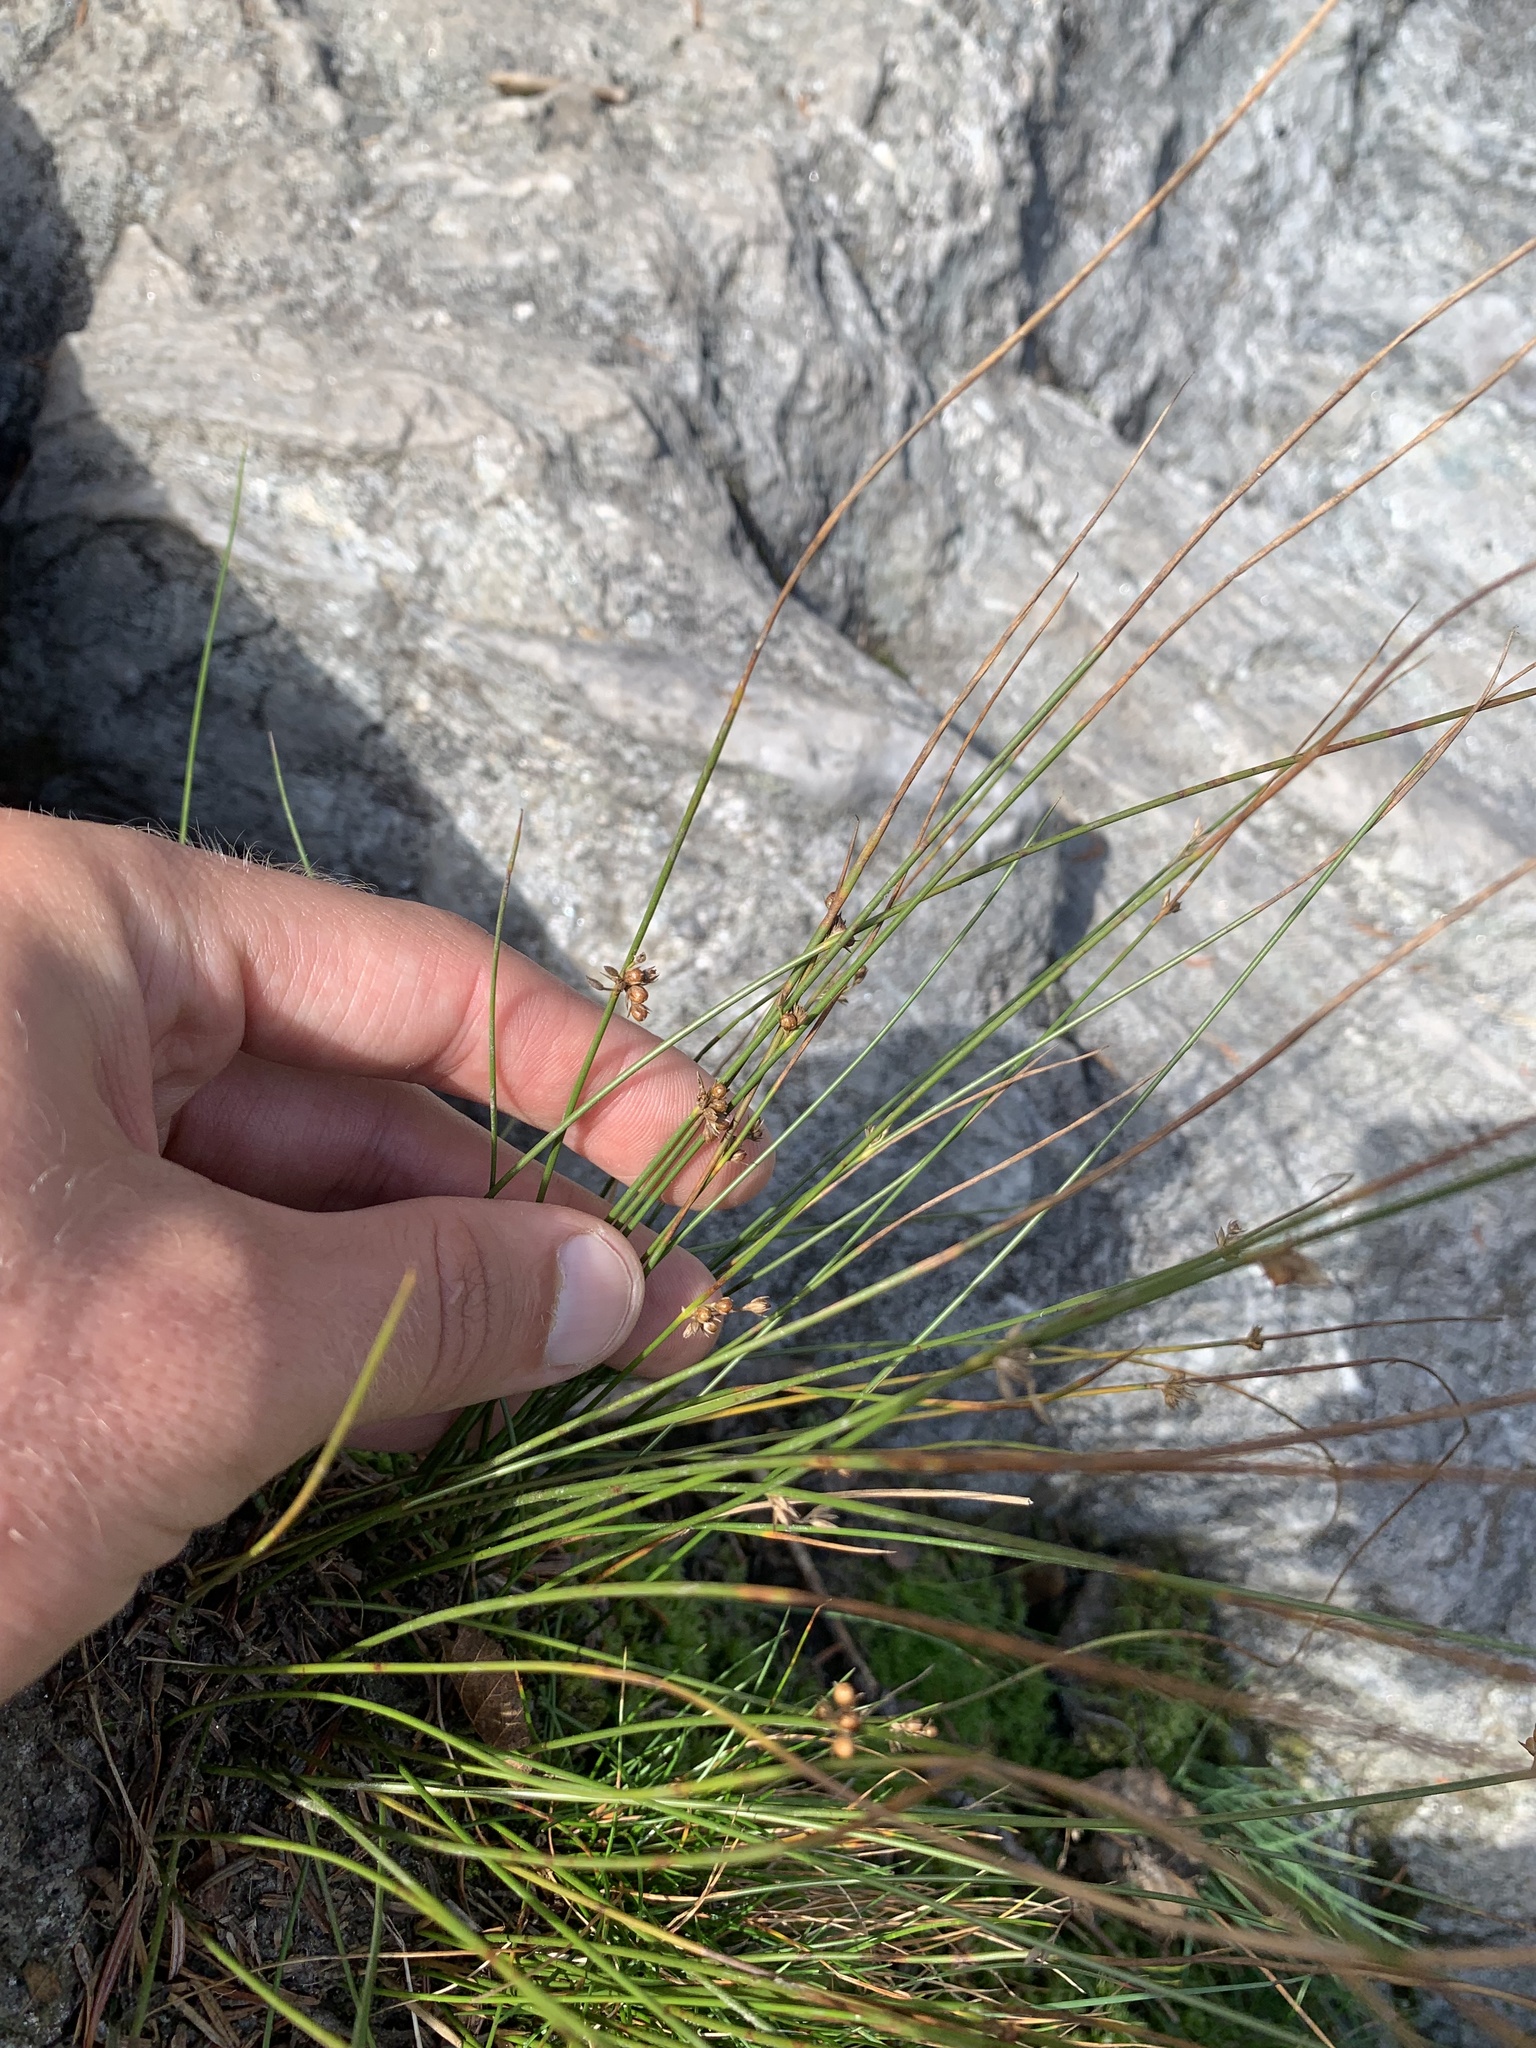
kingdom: Plantae
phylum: Tracheophyta
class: Liliopsida
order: Poales
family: Juncaceae
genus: Juncus
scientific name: Juncus filiformis
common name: Thread rush
